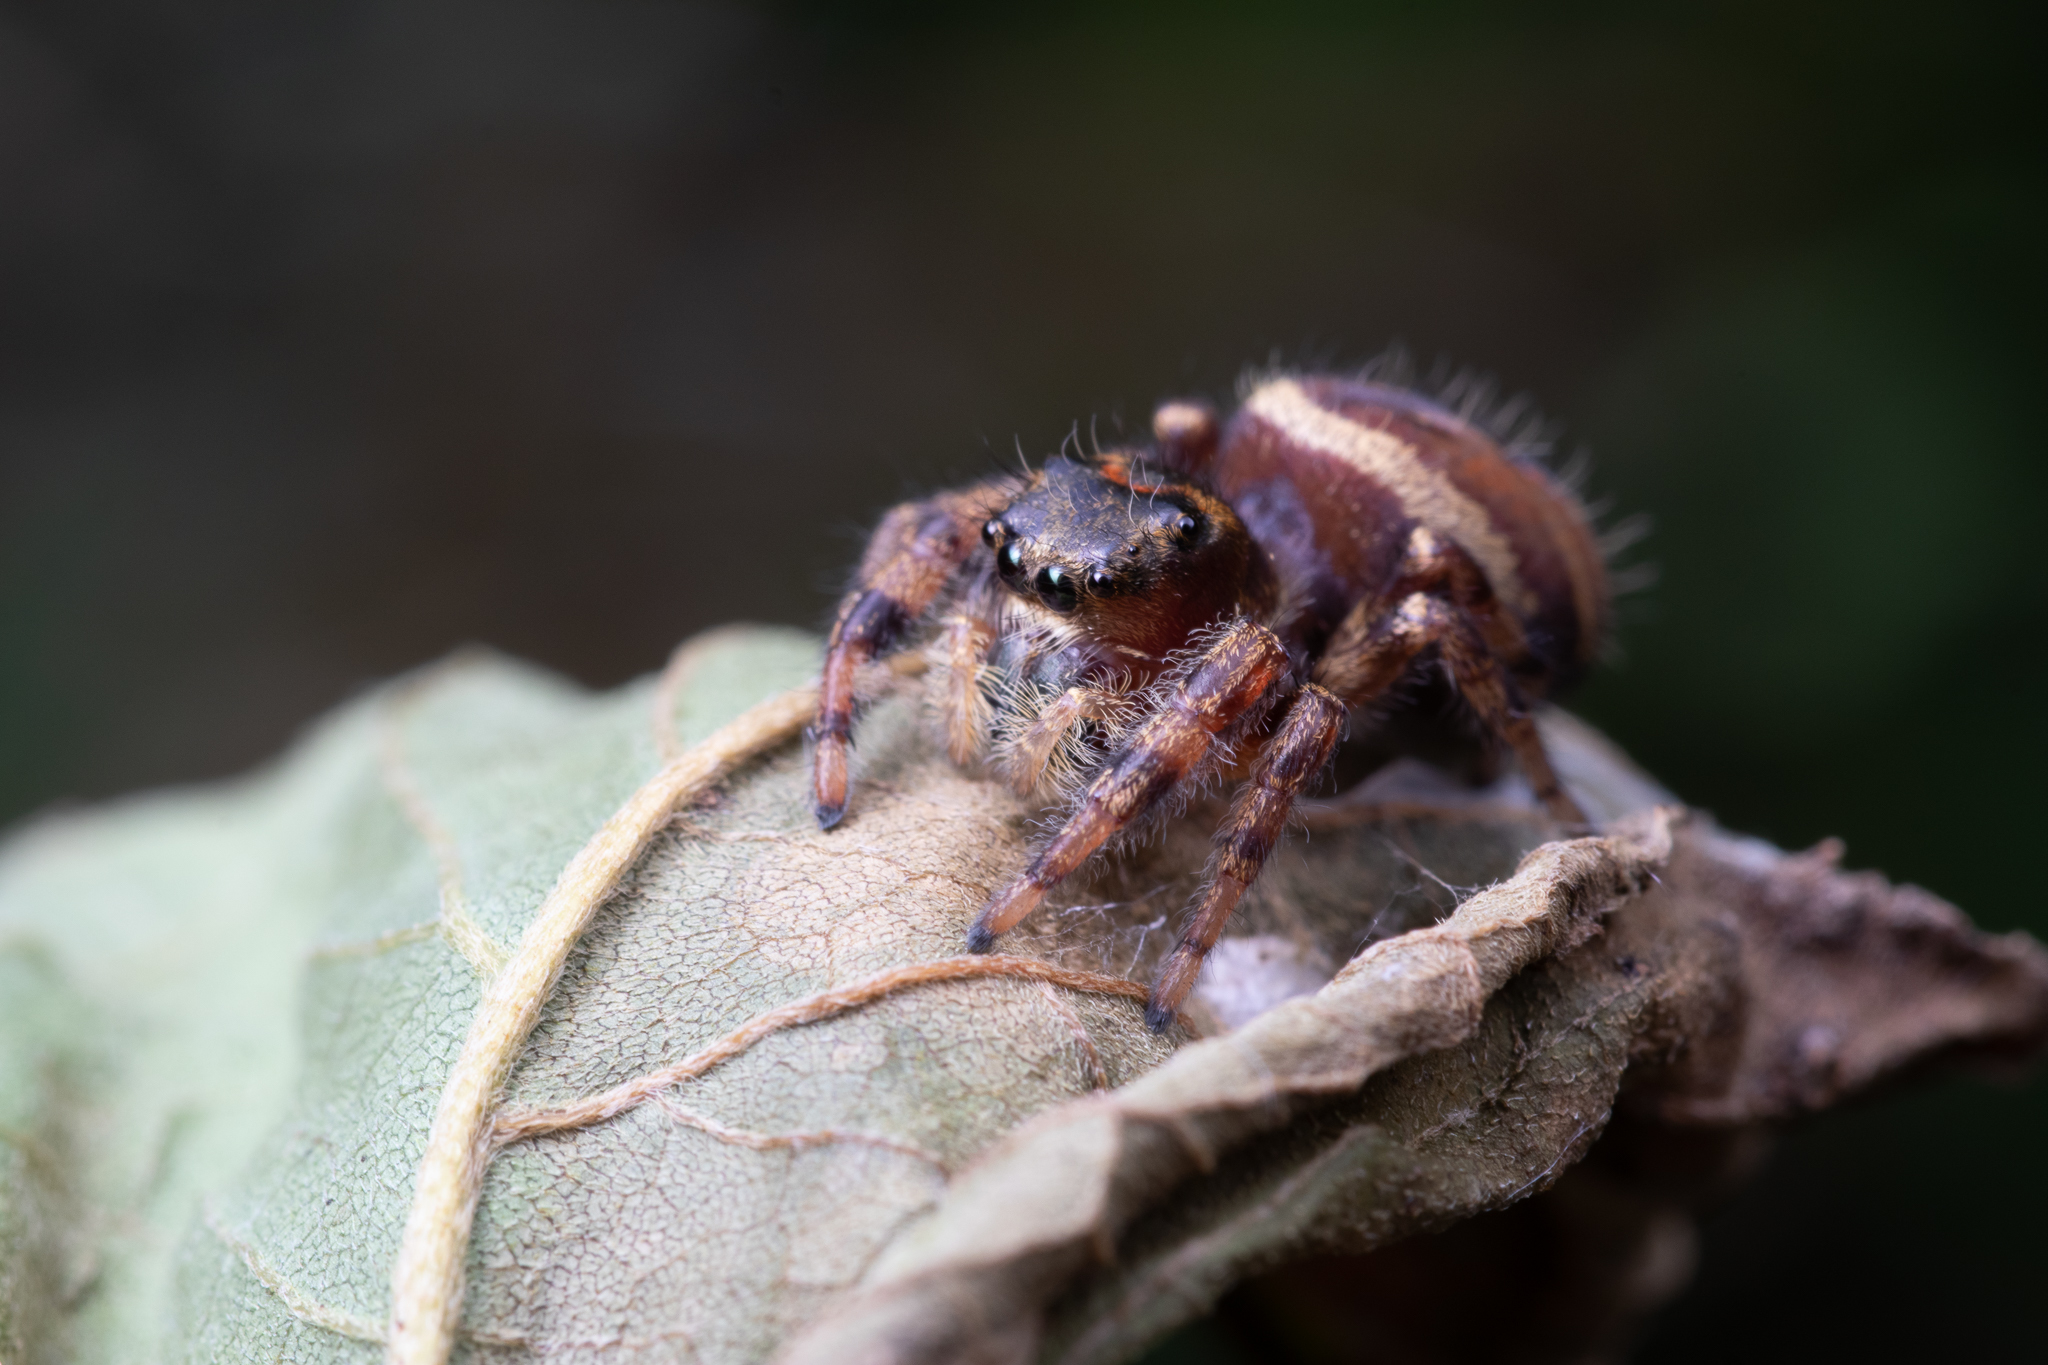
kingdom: Animalia
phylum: Arthropoda
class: Arachnida
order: Araneae
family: Salticidae
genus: Phidippus
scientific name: Phidippus clarus
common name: Brilliant jumping spider
